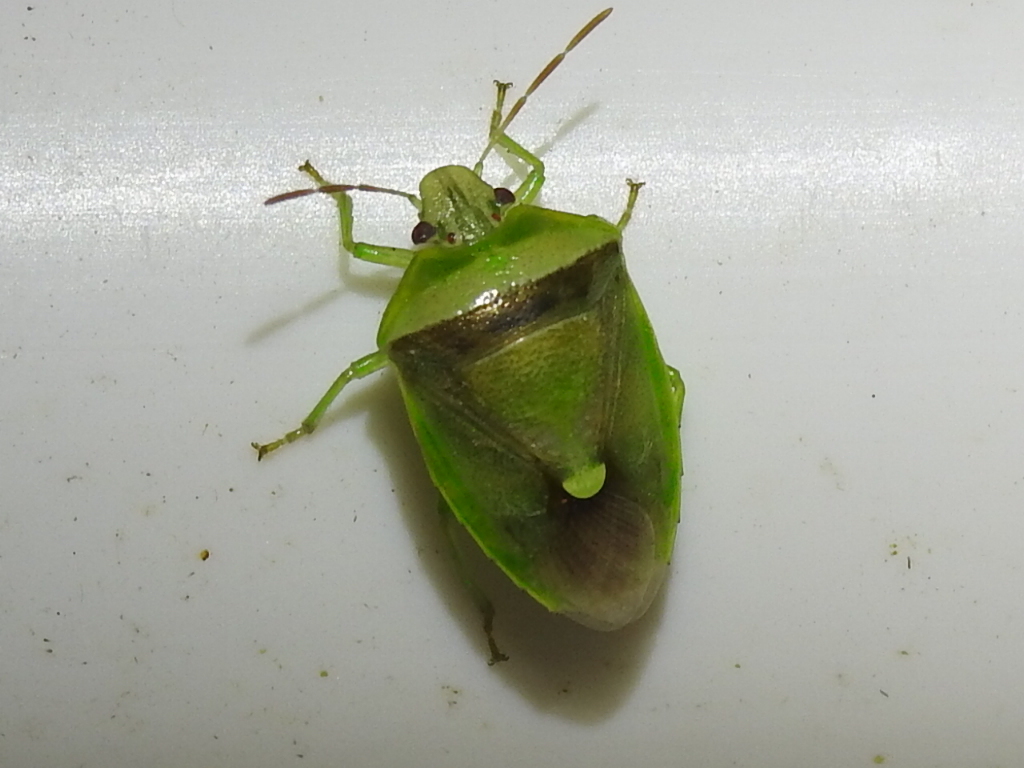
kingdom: Animalia
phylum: Arthropoda
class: Insecta
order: Hemiptera
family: Pentatomidae
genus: Banasa
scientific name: Banasa dimidiata
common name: Green burgundy stink bug
